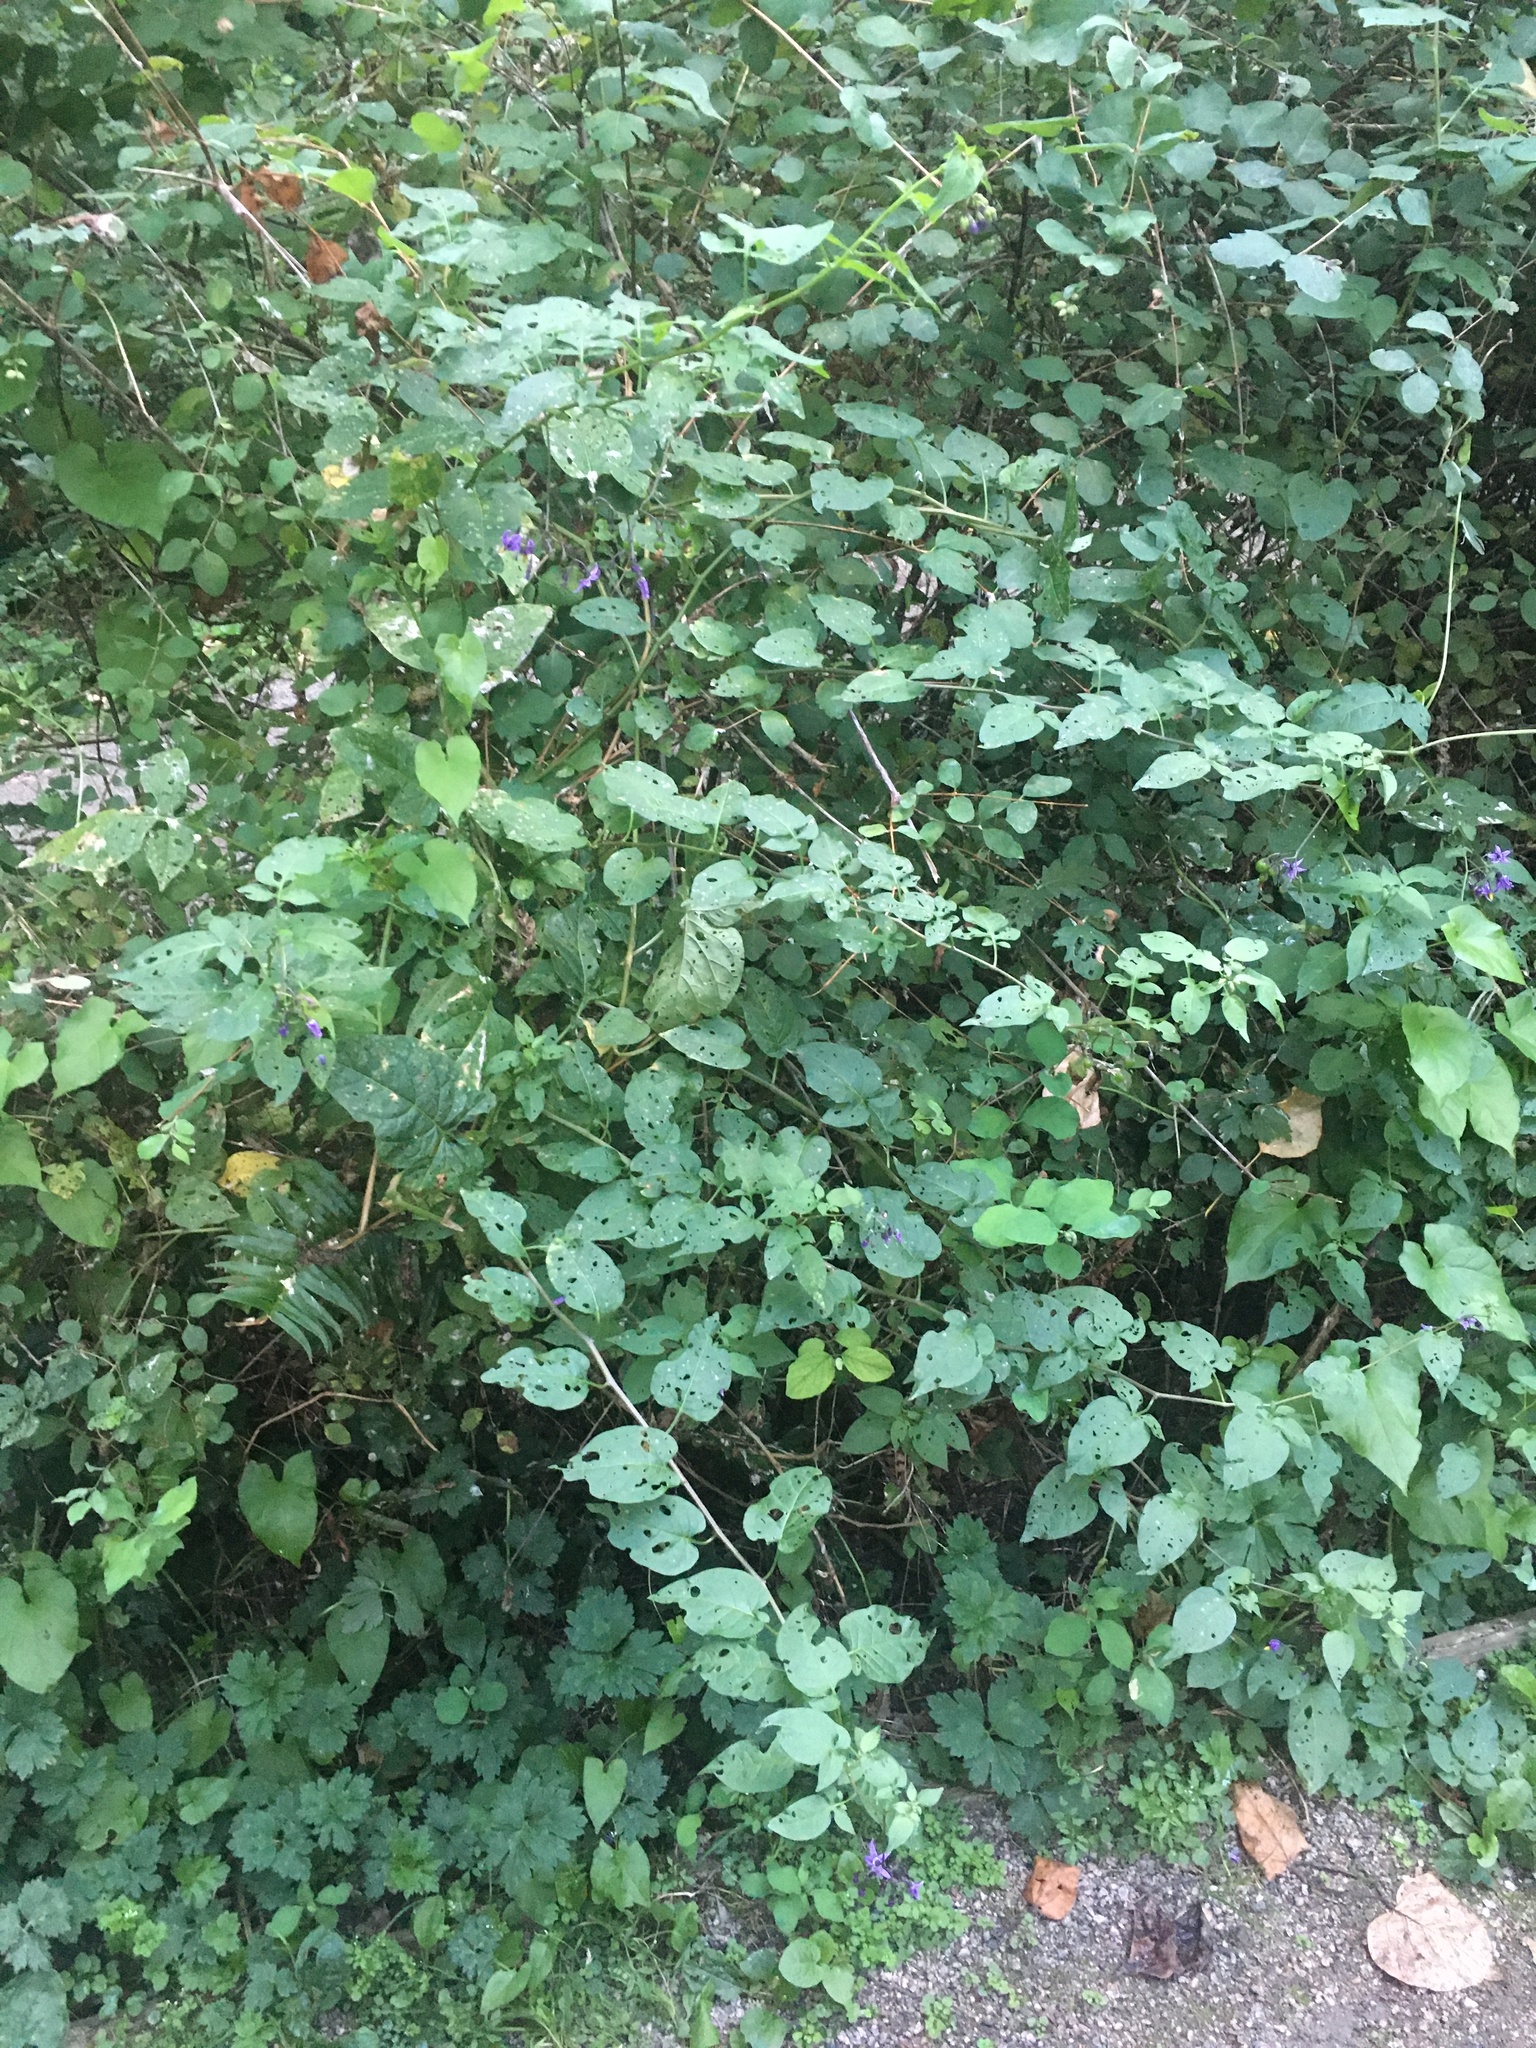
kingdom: Plantae
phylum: Tracheophyta
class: Magnoliopsida
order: Solanales
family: Solanaceae
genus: Solanum
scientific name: Solanum dulcamara
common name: Climbing nightshade
